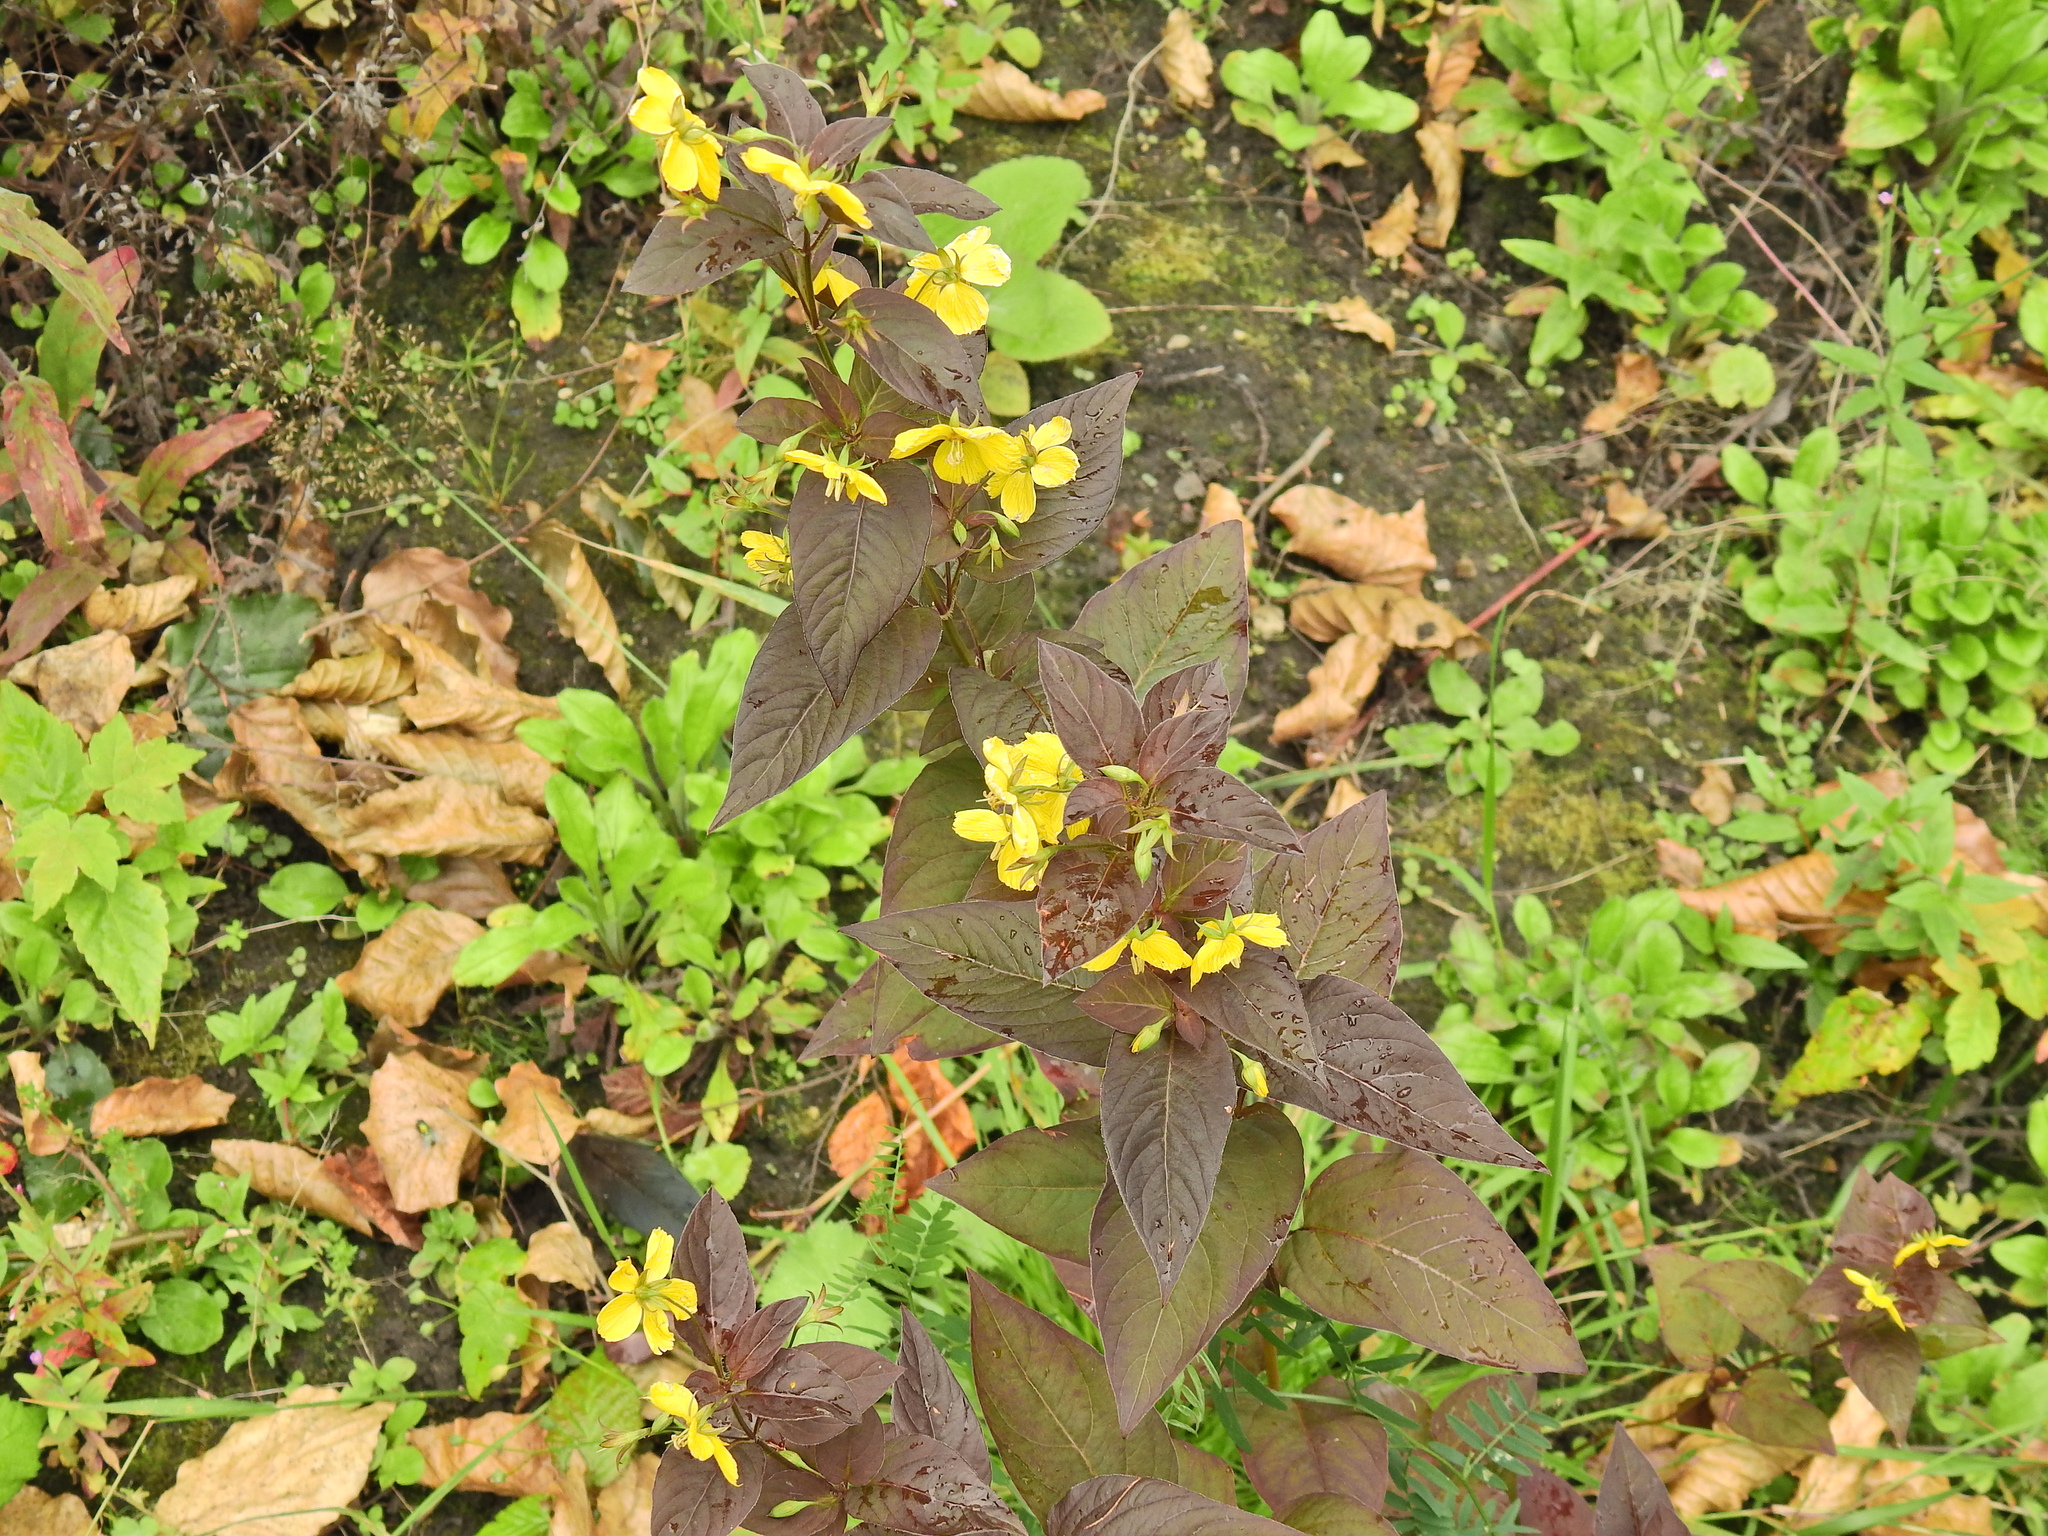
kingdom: Plantae
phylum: Tracheophyta
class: Magnoliopsida
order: Ericales
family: Primulaceae
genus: Lysimachia
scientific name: Lysimachia ciliata
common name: Fringed loosestrife
